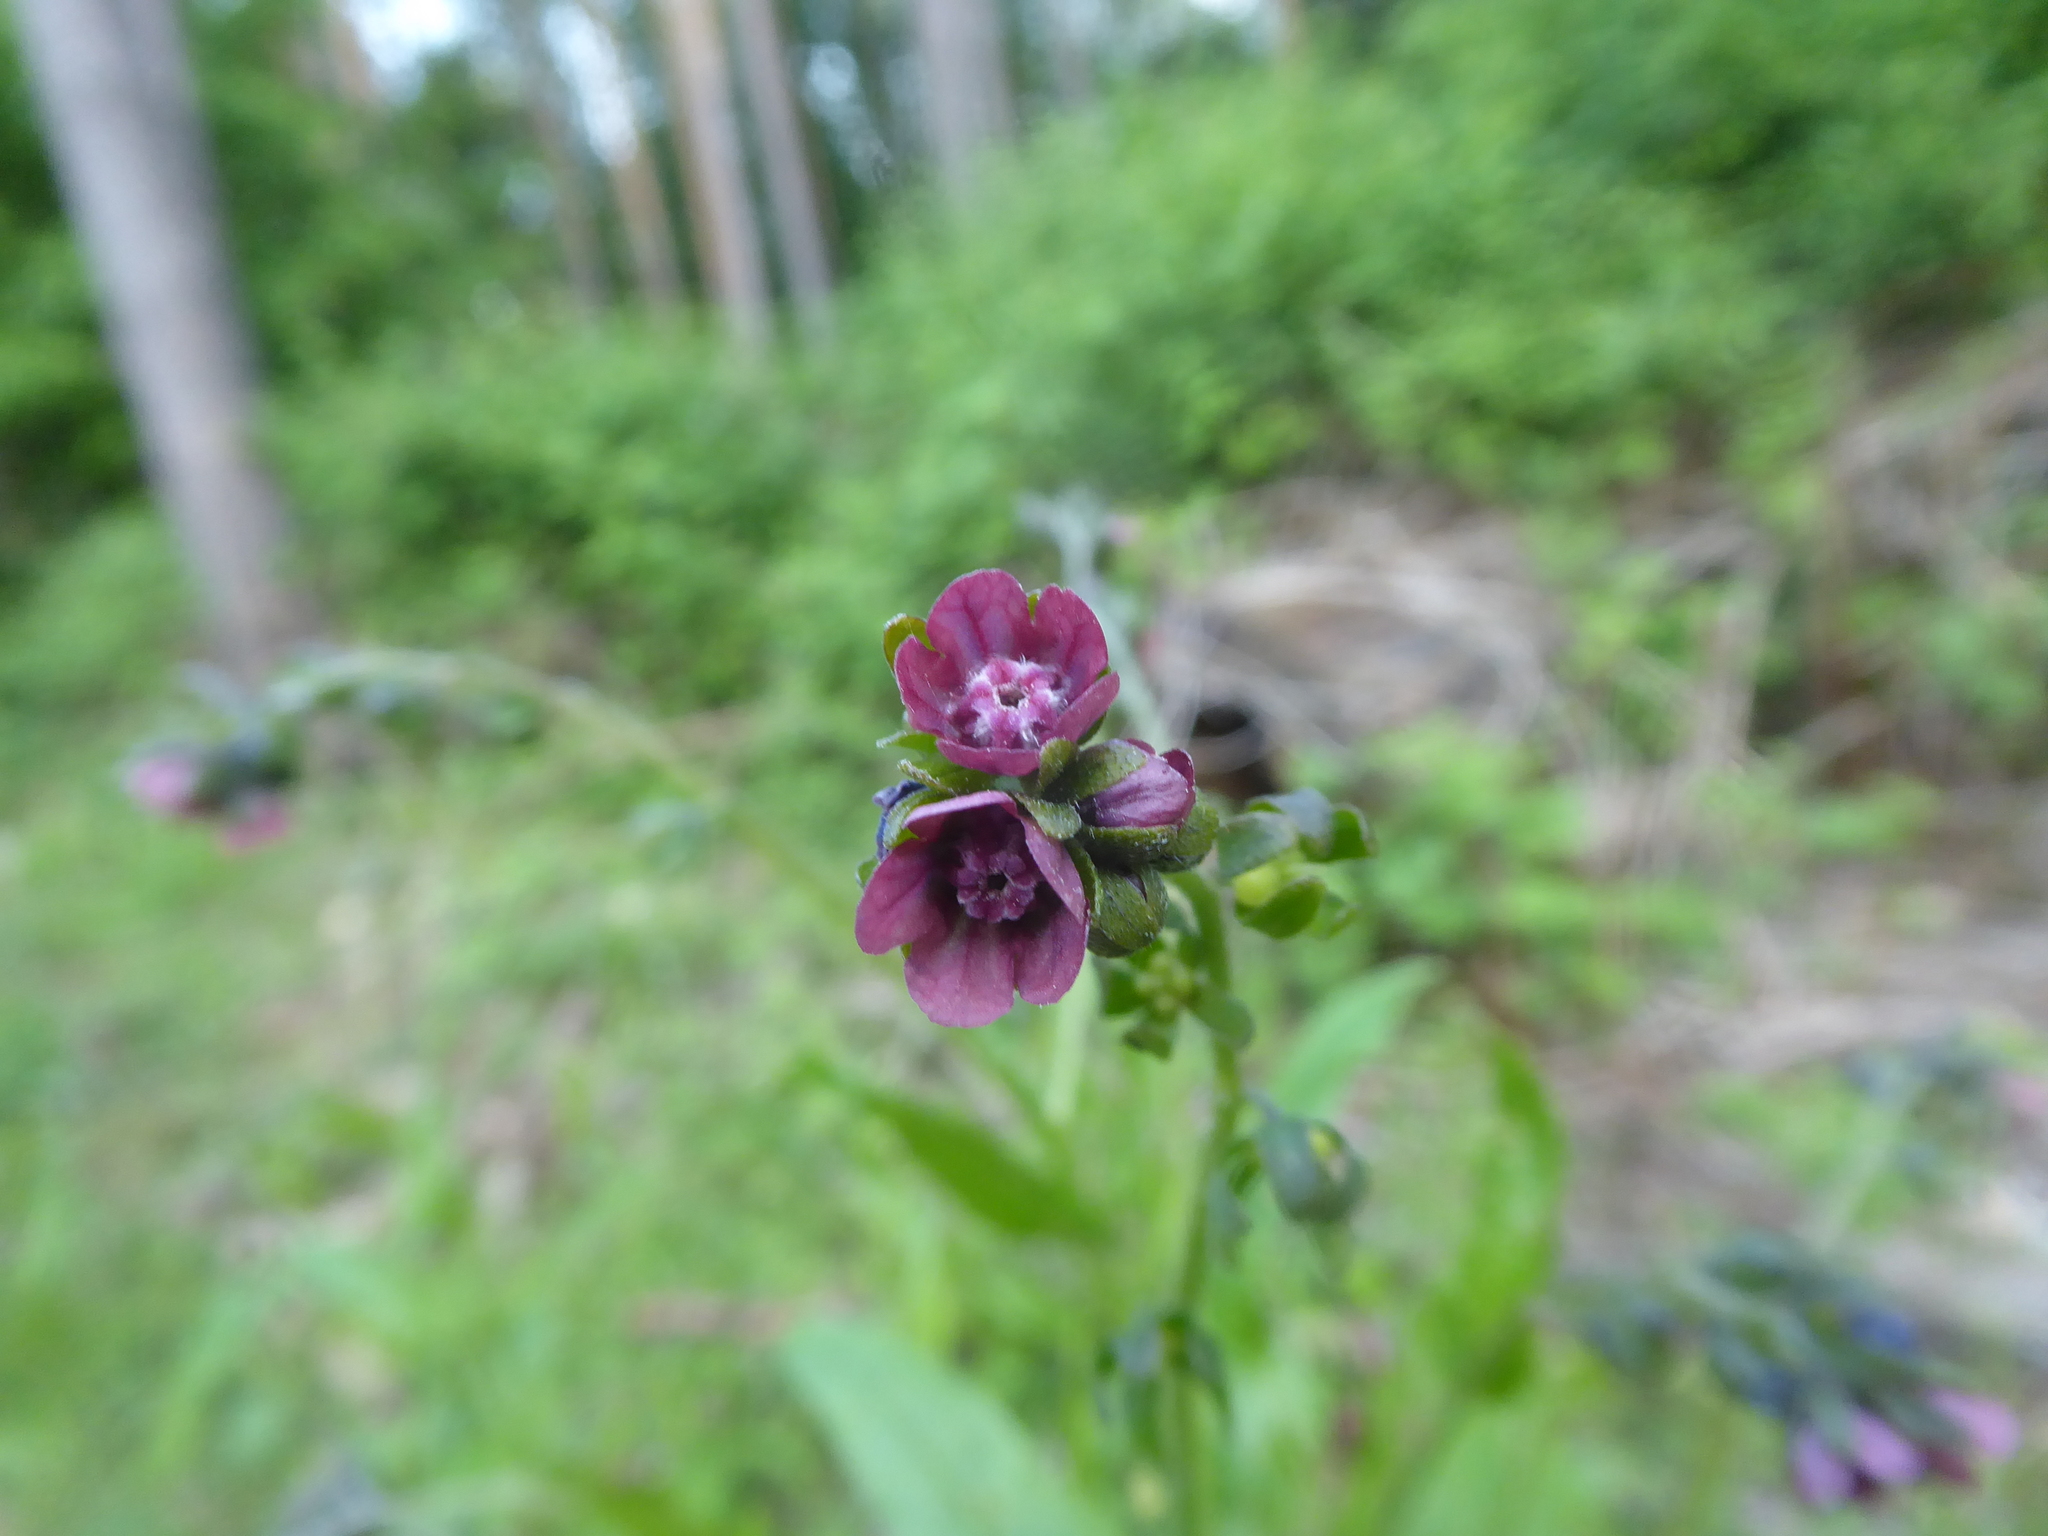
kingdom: Plantae
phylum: Tracheophyta
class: Magnoliopsida
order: Boraginales
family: Boraginaceae
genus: Cynoglossum
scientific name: Cynoglossum officinale
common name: Hound's-tongue
